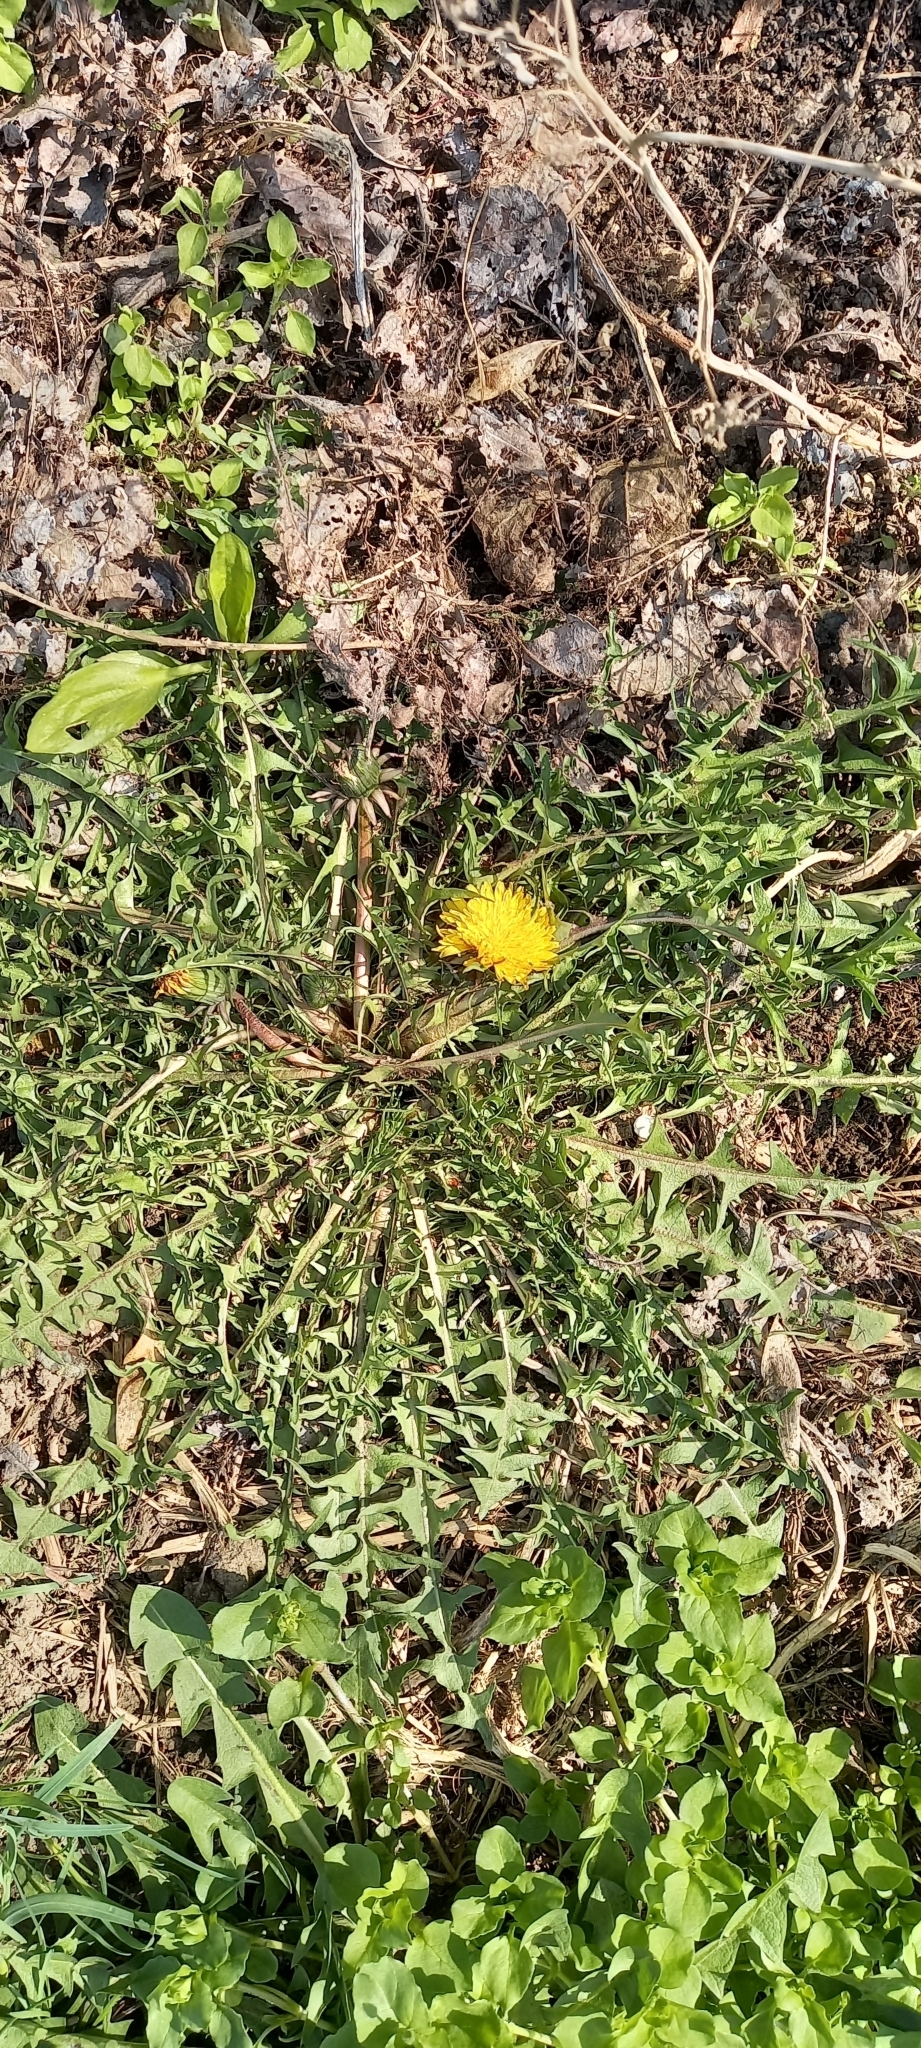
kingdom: Plantae
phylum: Tracheophyta
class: Magnoliopsida
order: Asterales
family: Asteraceae
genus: Taraxacum
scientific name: Taraxacum officinale
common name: Common dandelion
